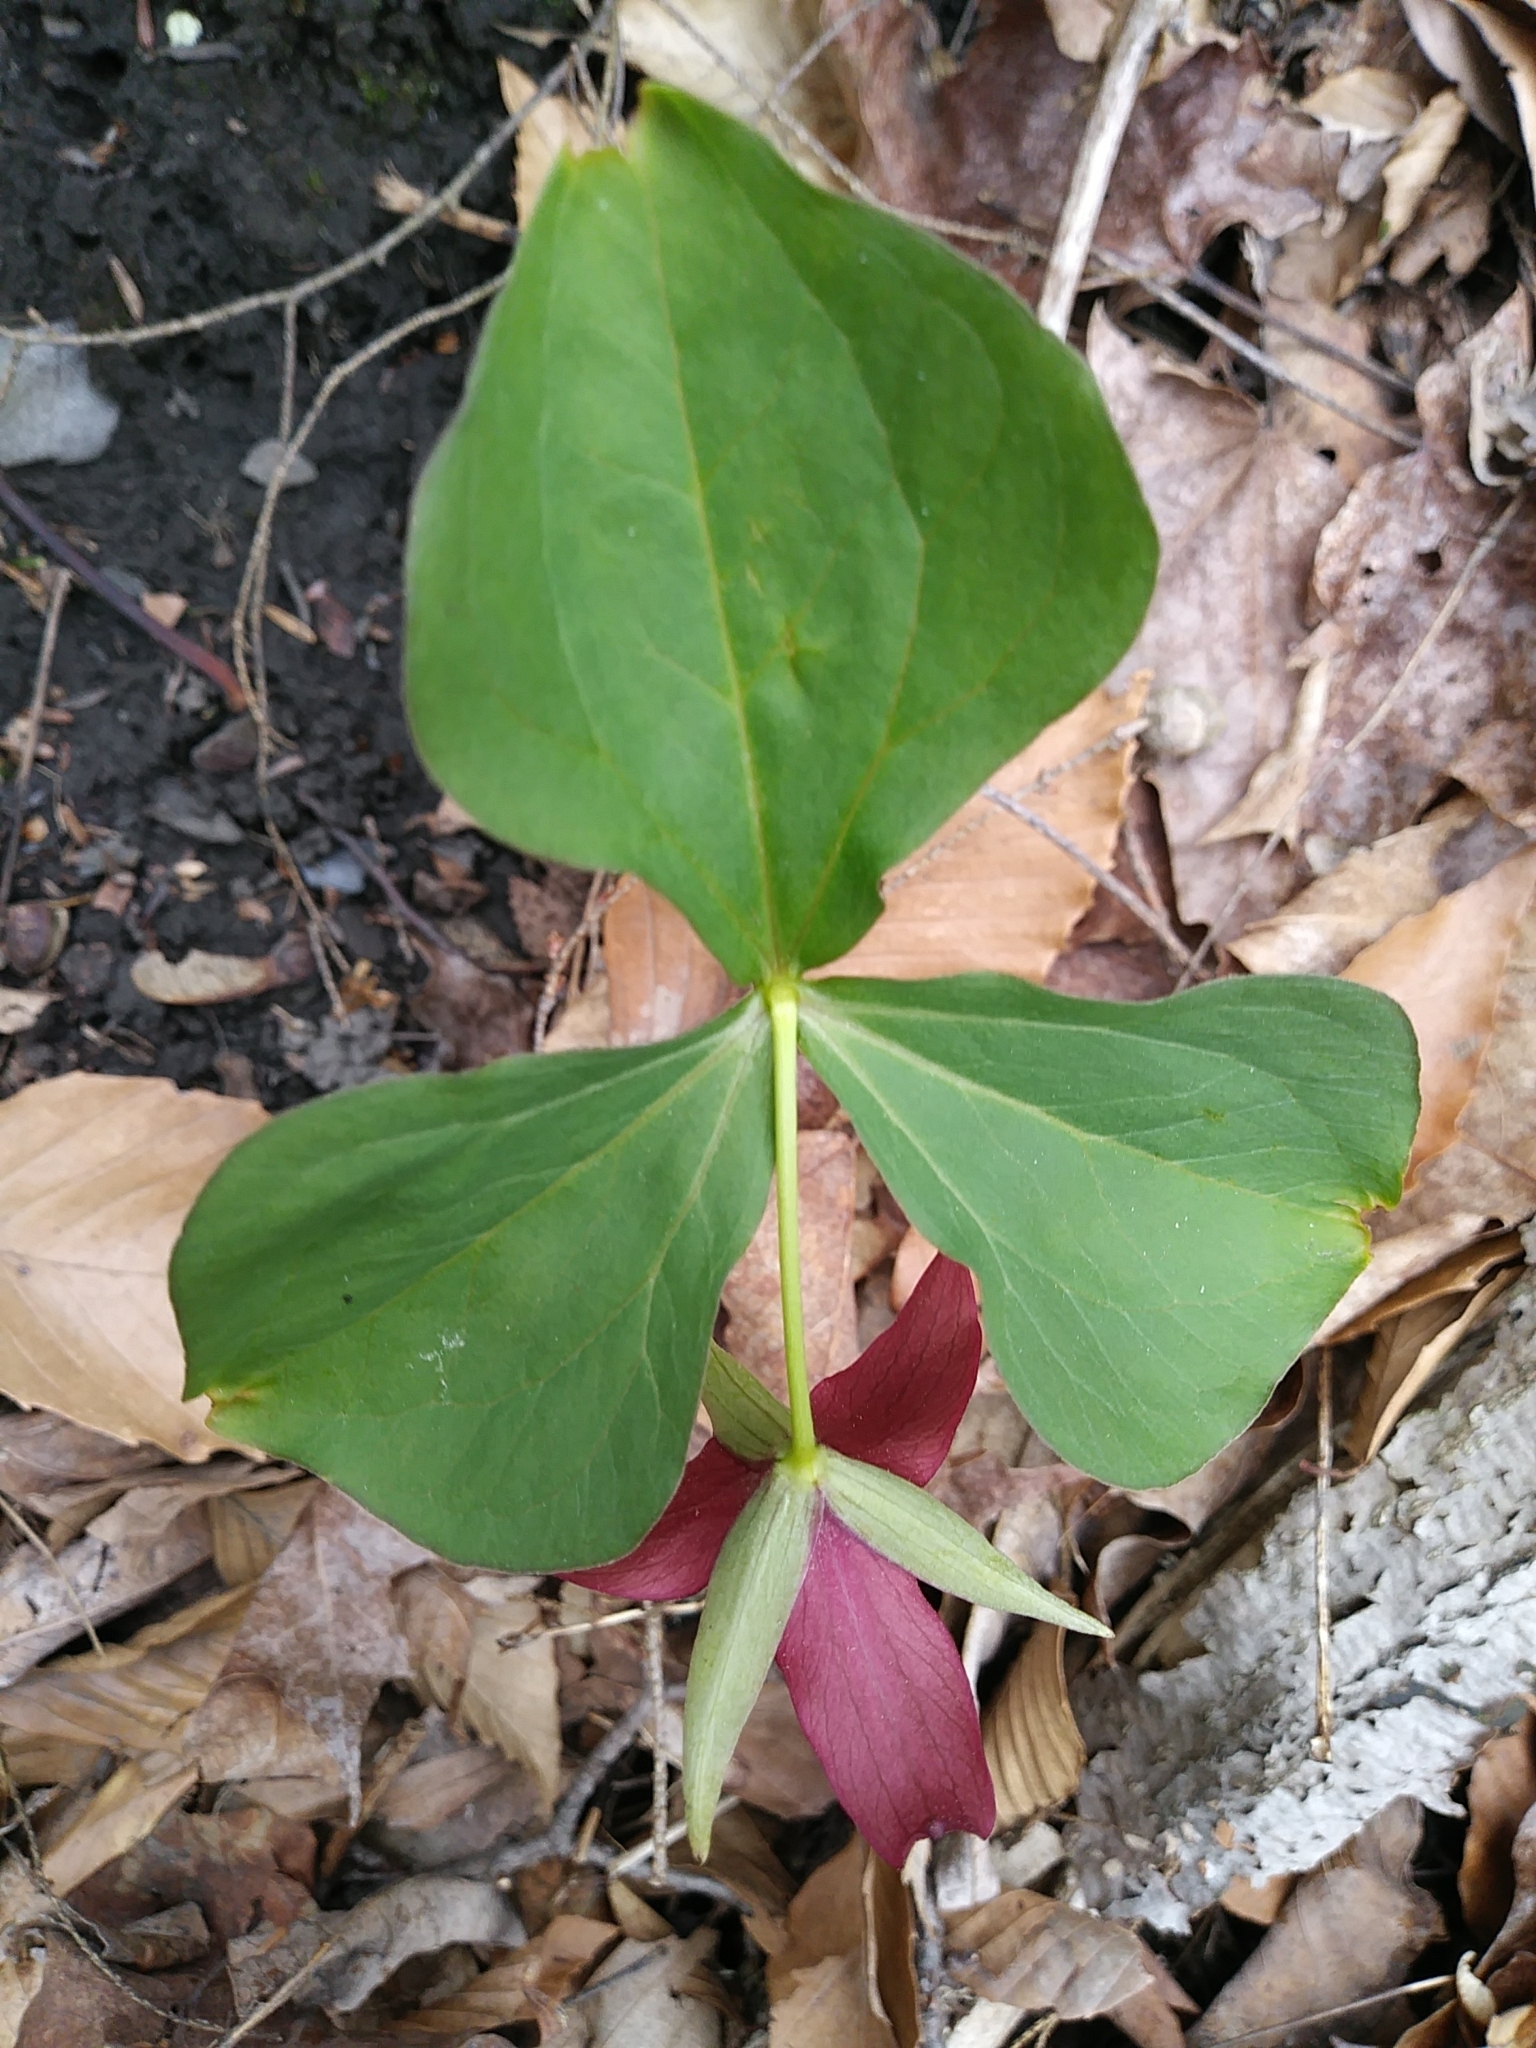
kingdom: Plantae
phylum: Tracheophyta
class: Liliopsida
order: Liliales
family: Melanthiaceae
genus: Trillium
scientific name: Trillium erectum
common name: Purple trillium
